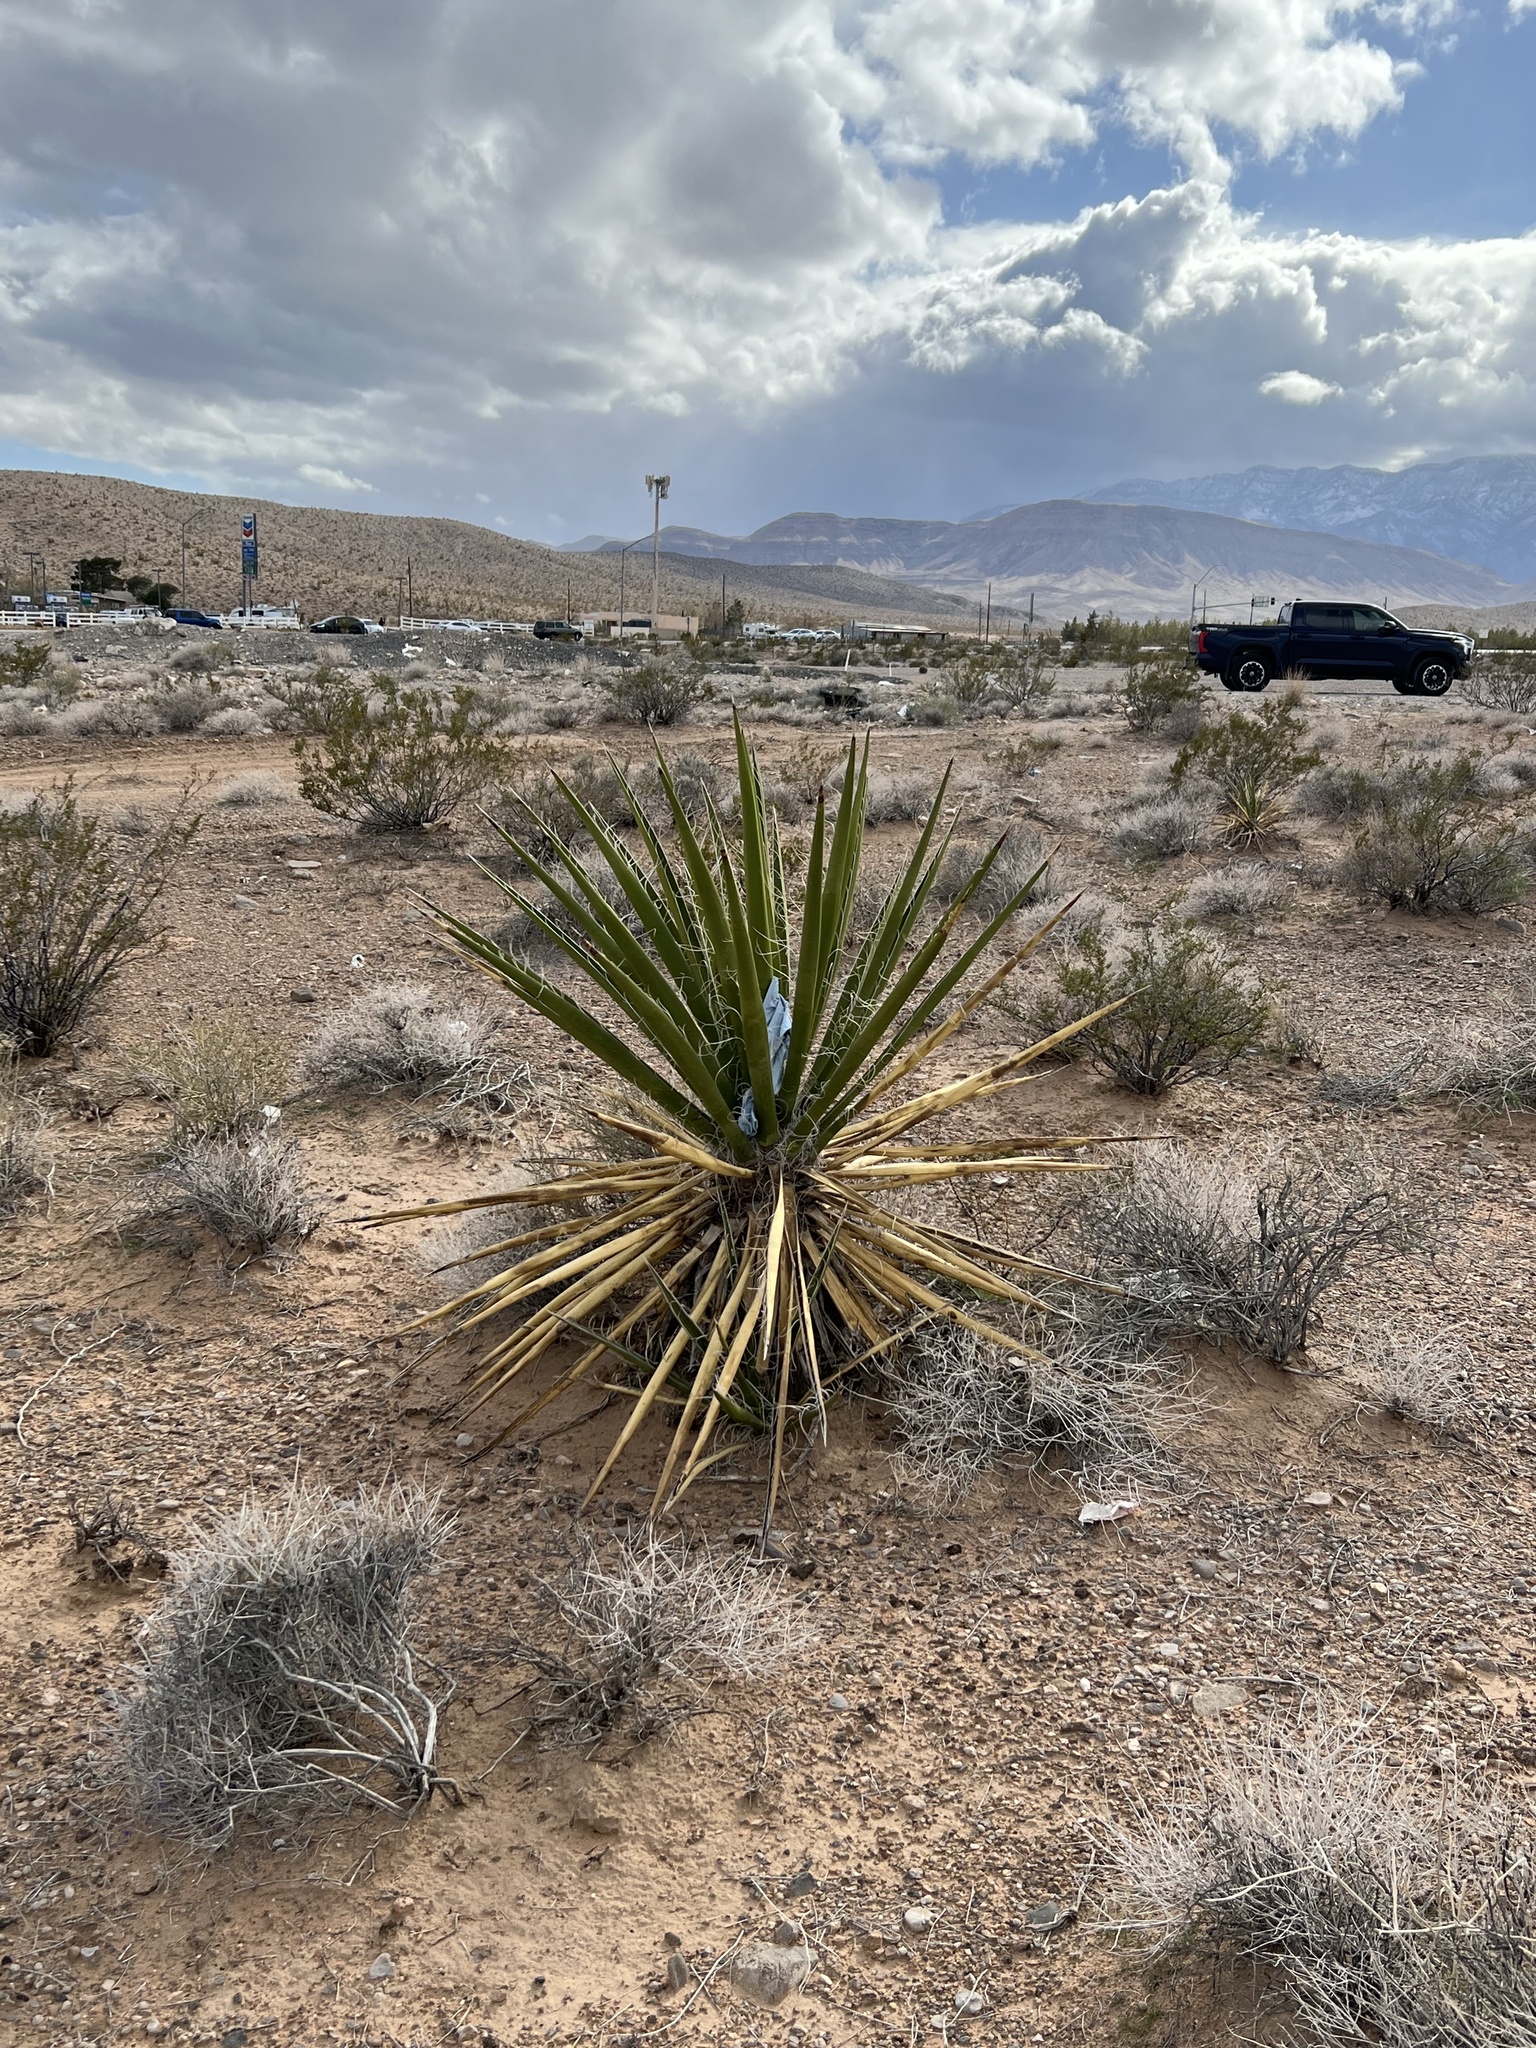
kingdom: Plantae
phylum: Tracheophyta
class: Liliopsida
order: Asparagales
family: Asparagaceae
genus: Yucca
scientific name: Yucca schidigera
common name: Mojave yucca
